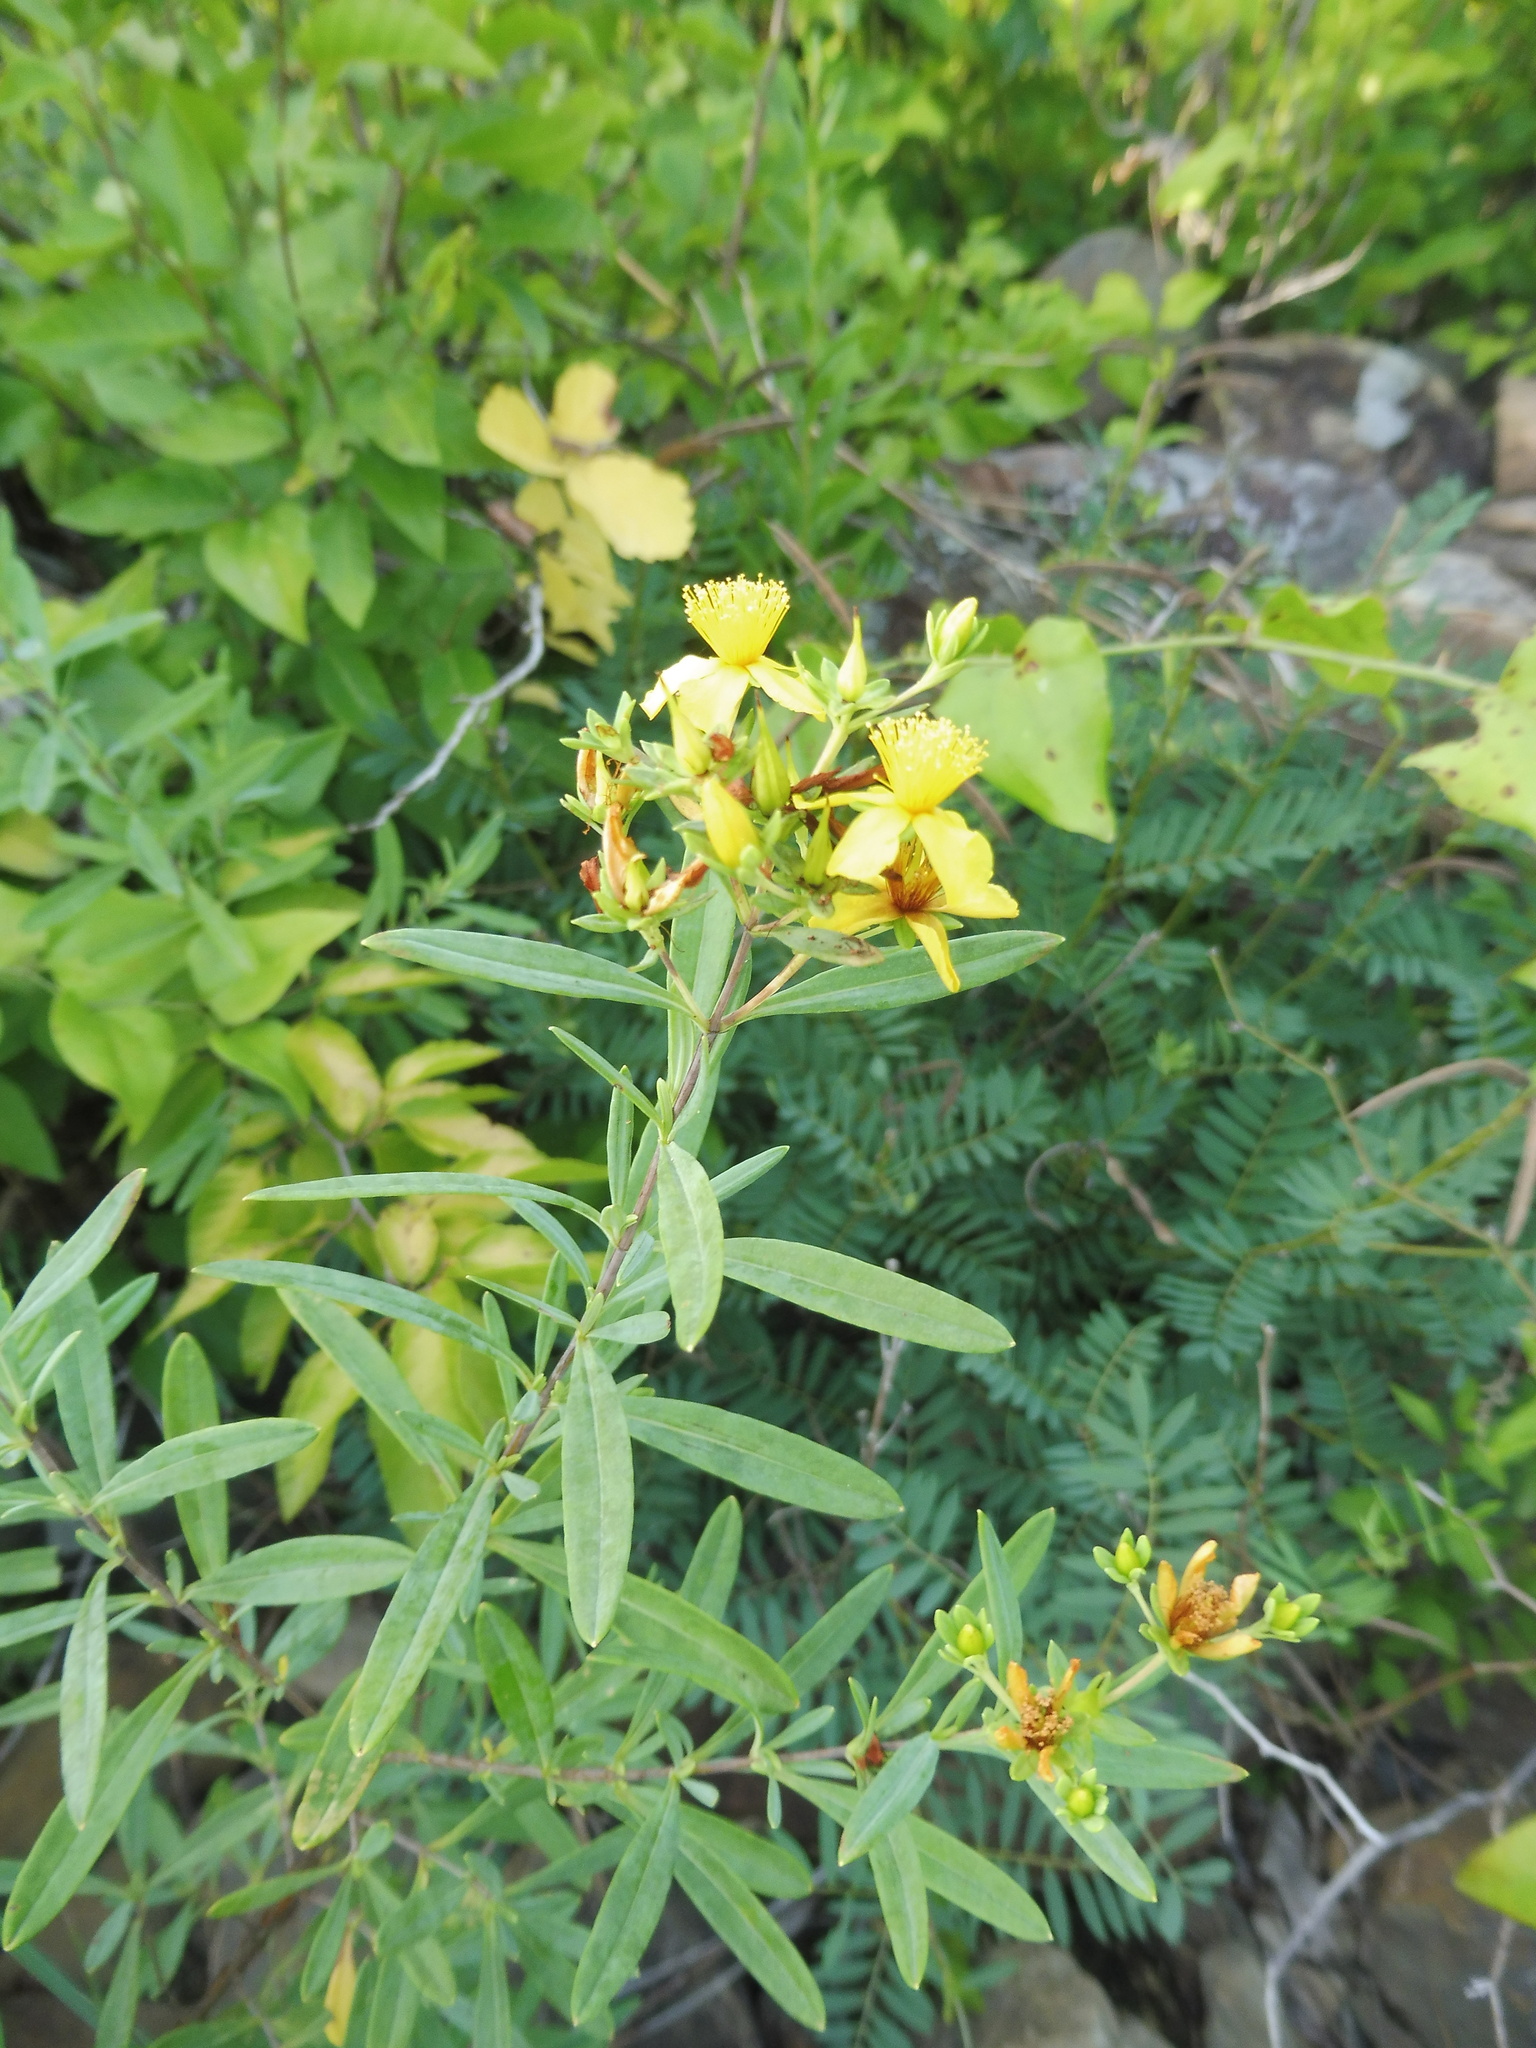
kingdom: Plantae
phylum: Tracheophyta
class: Magnoliopsida
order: Malpighiales
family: Hypericaceae
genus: Hypericum
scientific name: Hypericum lobocarpum
